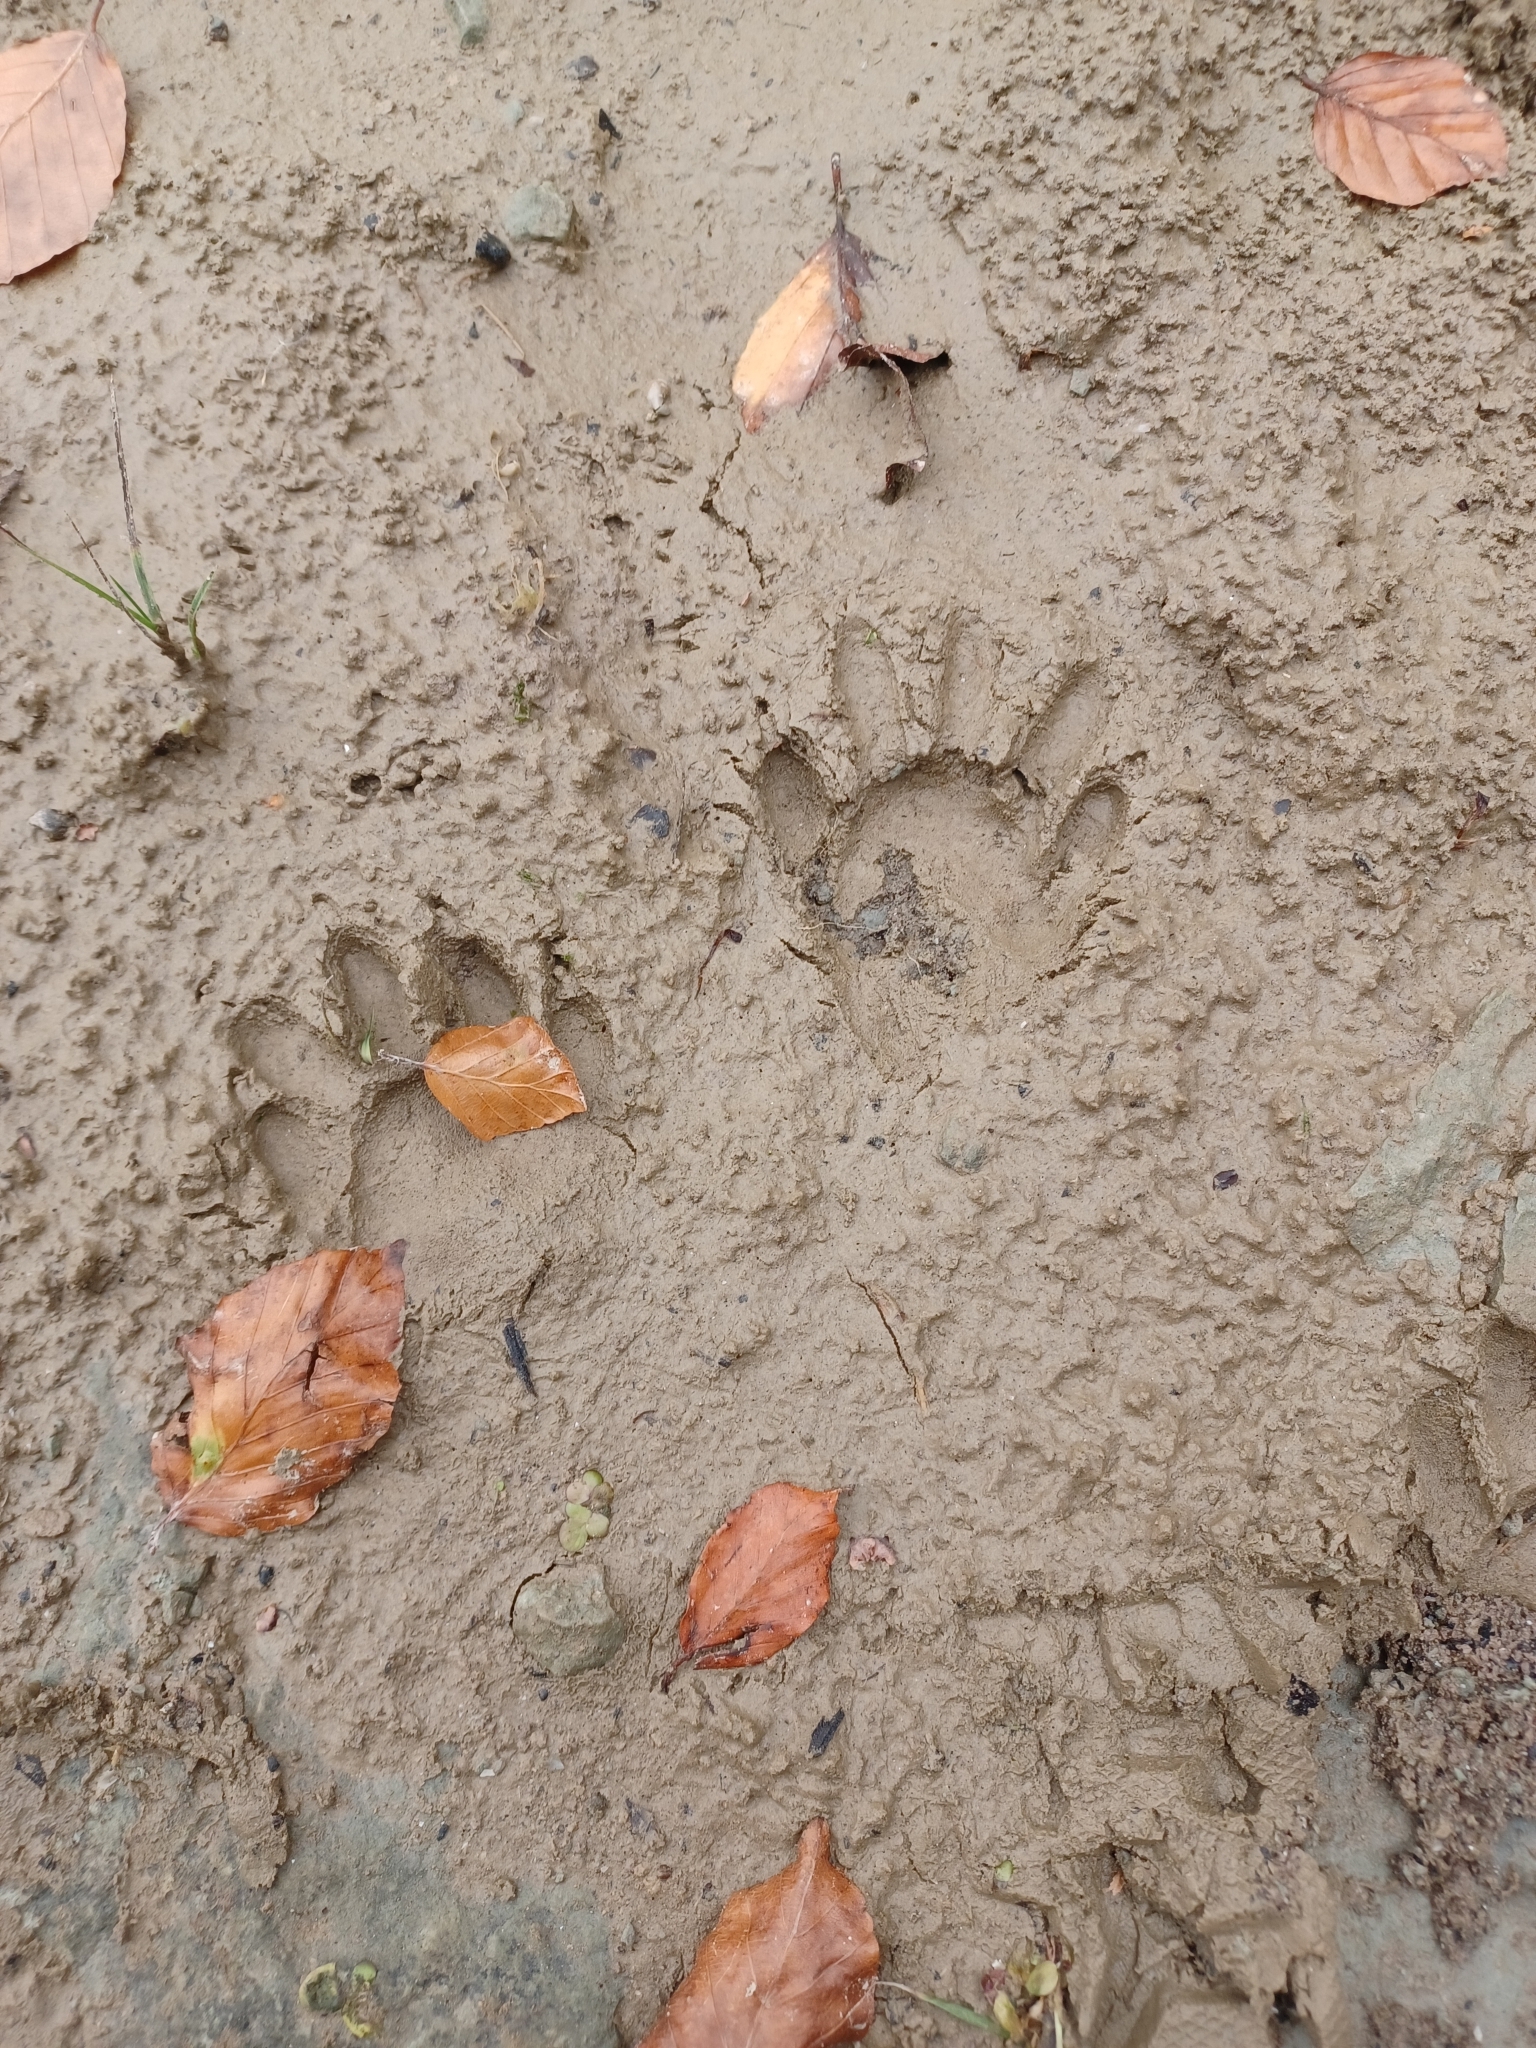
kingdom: Animalia
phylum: Chordata
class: Mammalia
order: Carnivora
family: Procyonidae
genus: Procyon
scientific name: Procyon lotor
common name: Raccoon
